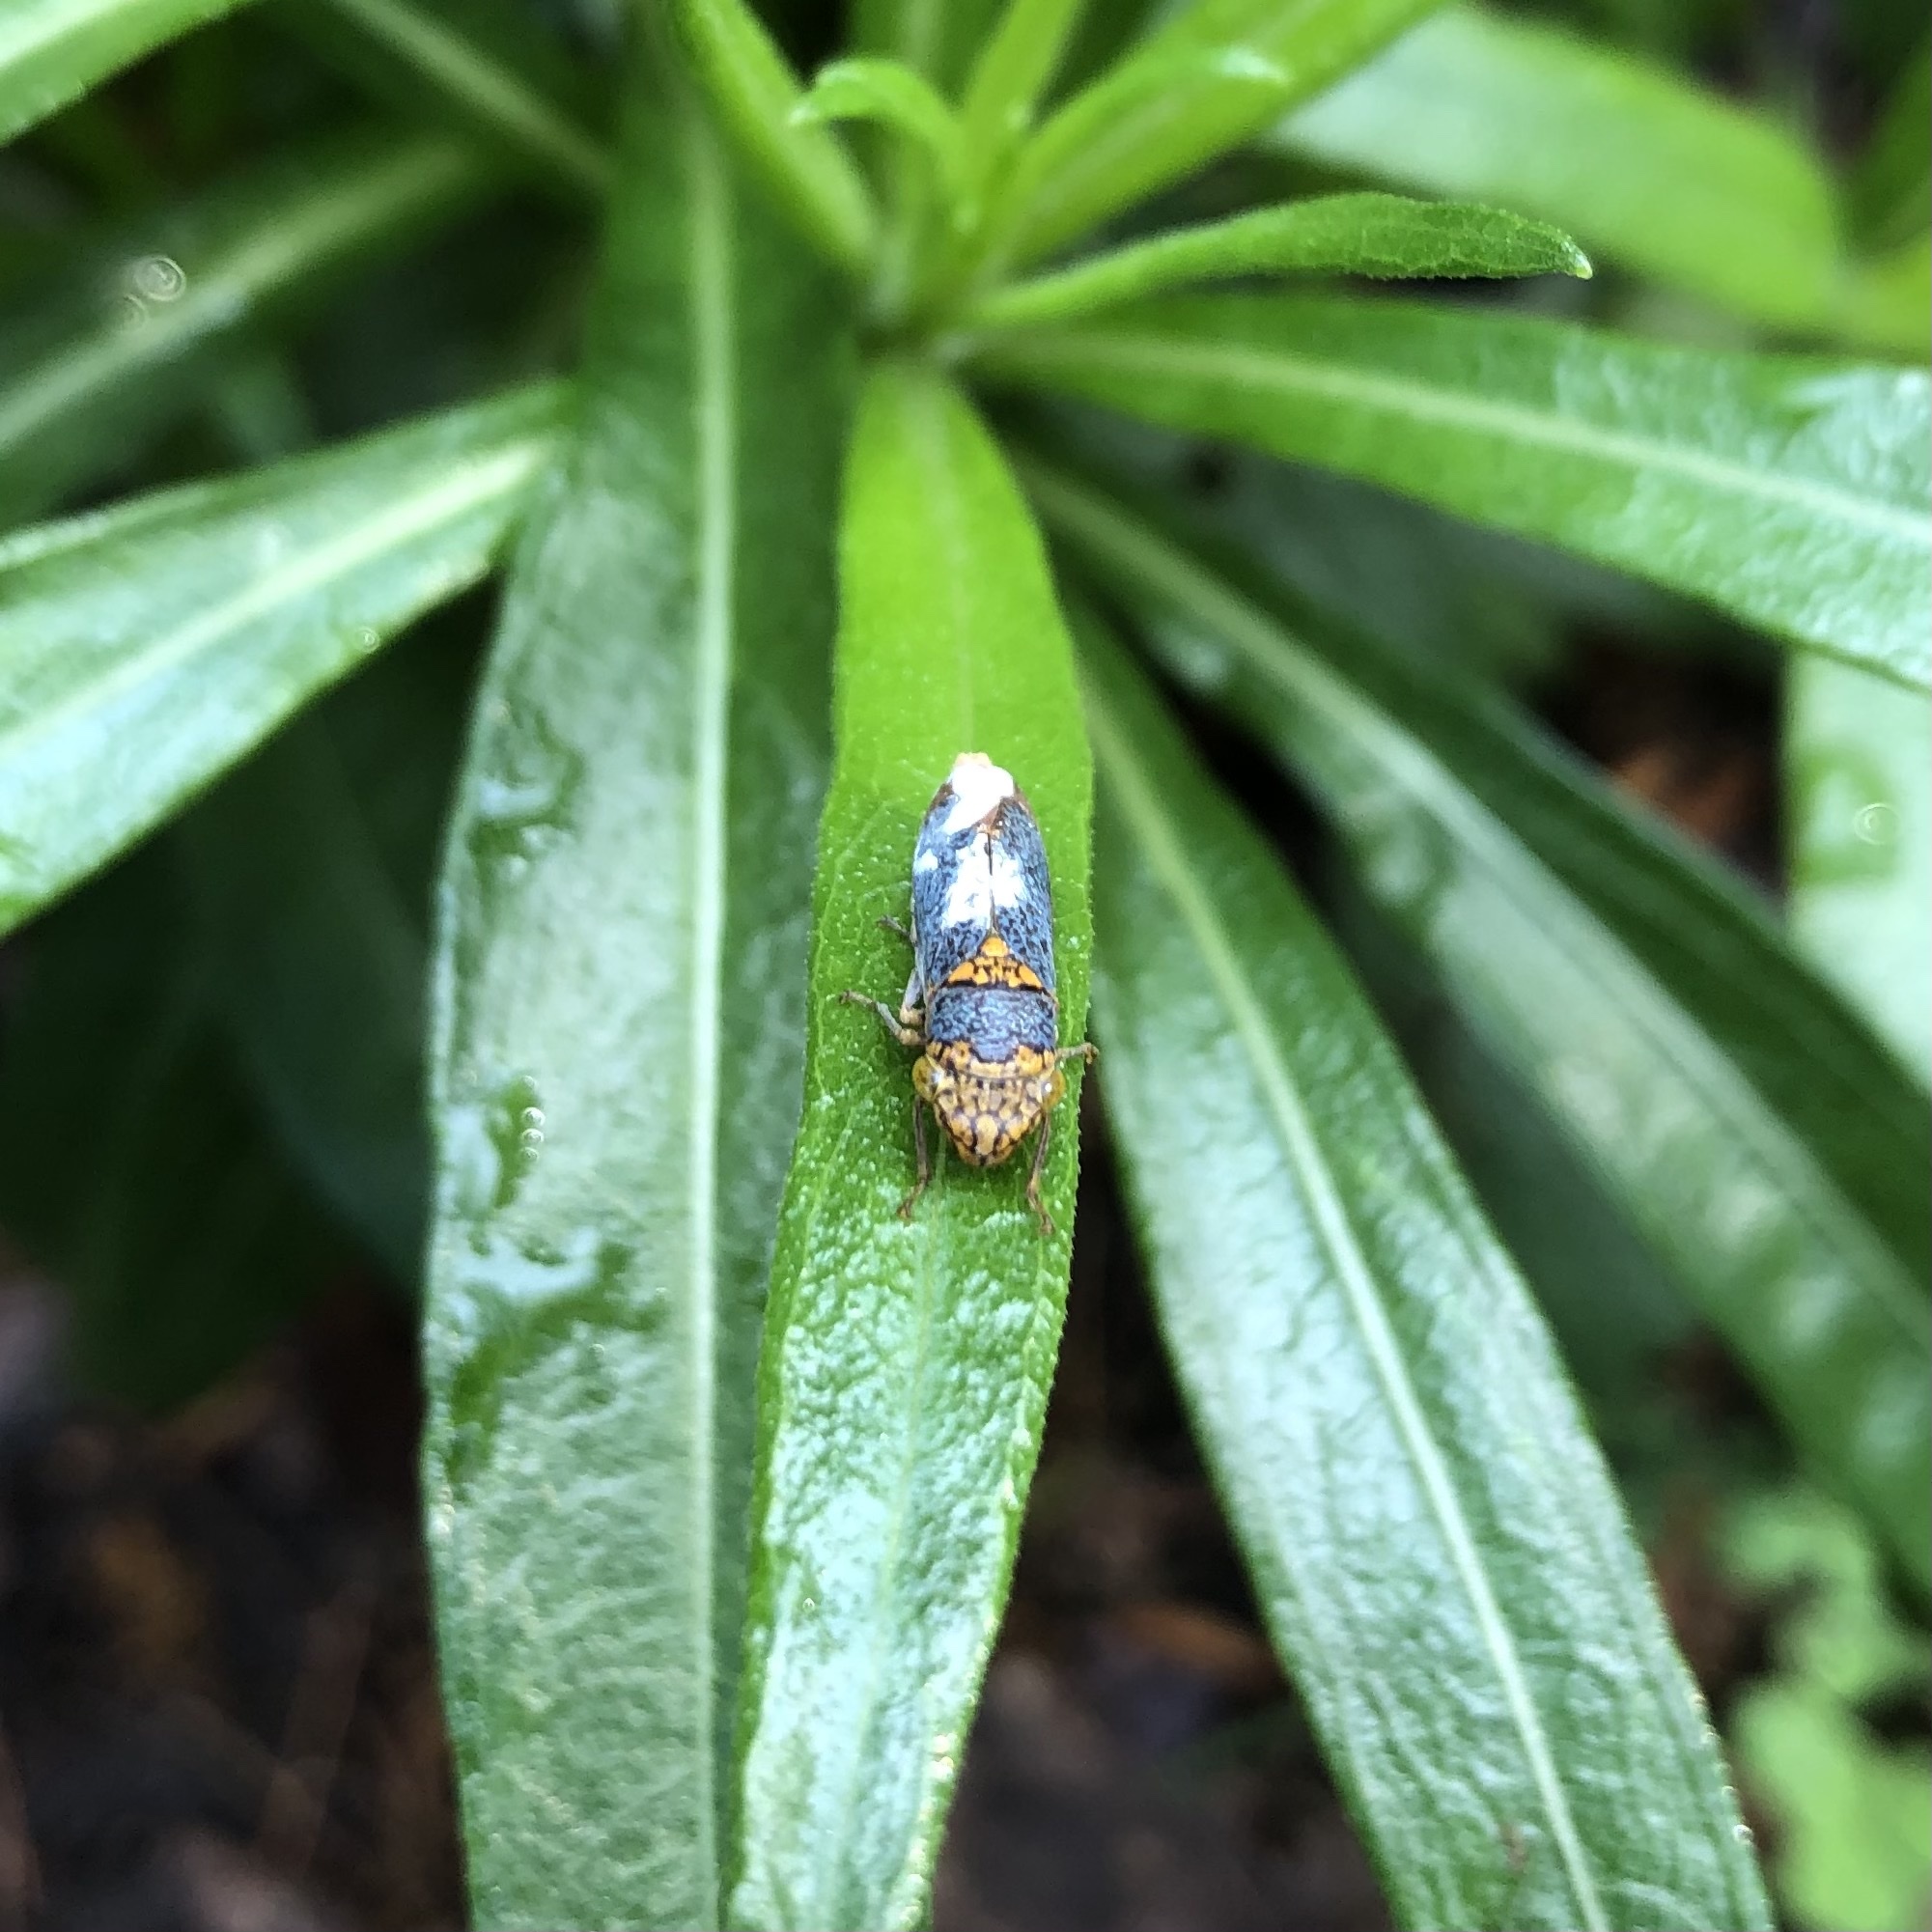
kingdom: Animalia
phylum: Arthropoda
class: Insecta
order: Hemiptera
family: Cicadellidae
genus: Oncometopia
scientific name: Oncometopia orbona
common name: Broad-headed sharpshooter
